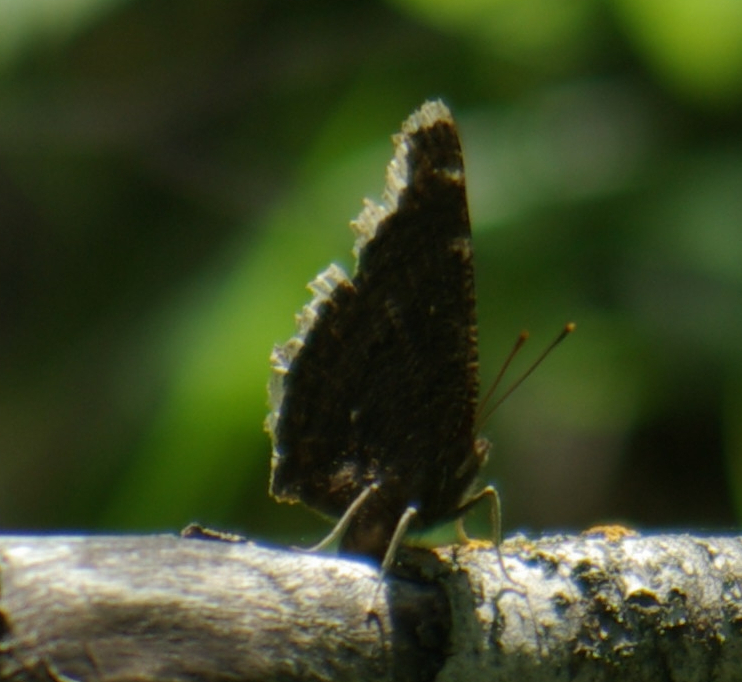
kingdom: Animalia
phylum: Arthropoda
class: Insecta
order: Lepidoptera
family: Nymphalidae
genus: Nymphalis
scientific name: Nymphalis antiopa
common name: Camberwell beauty
